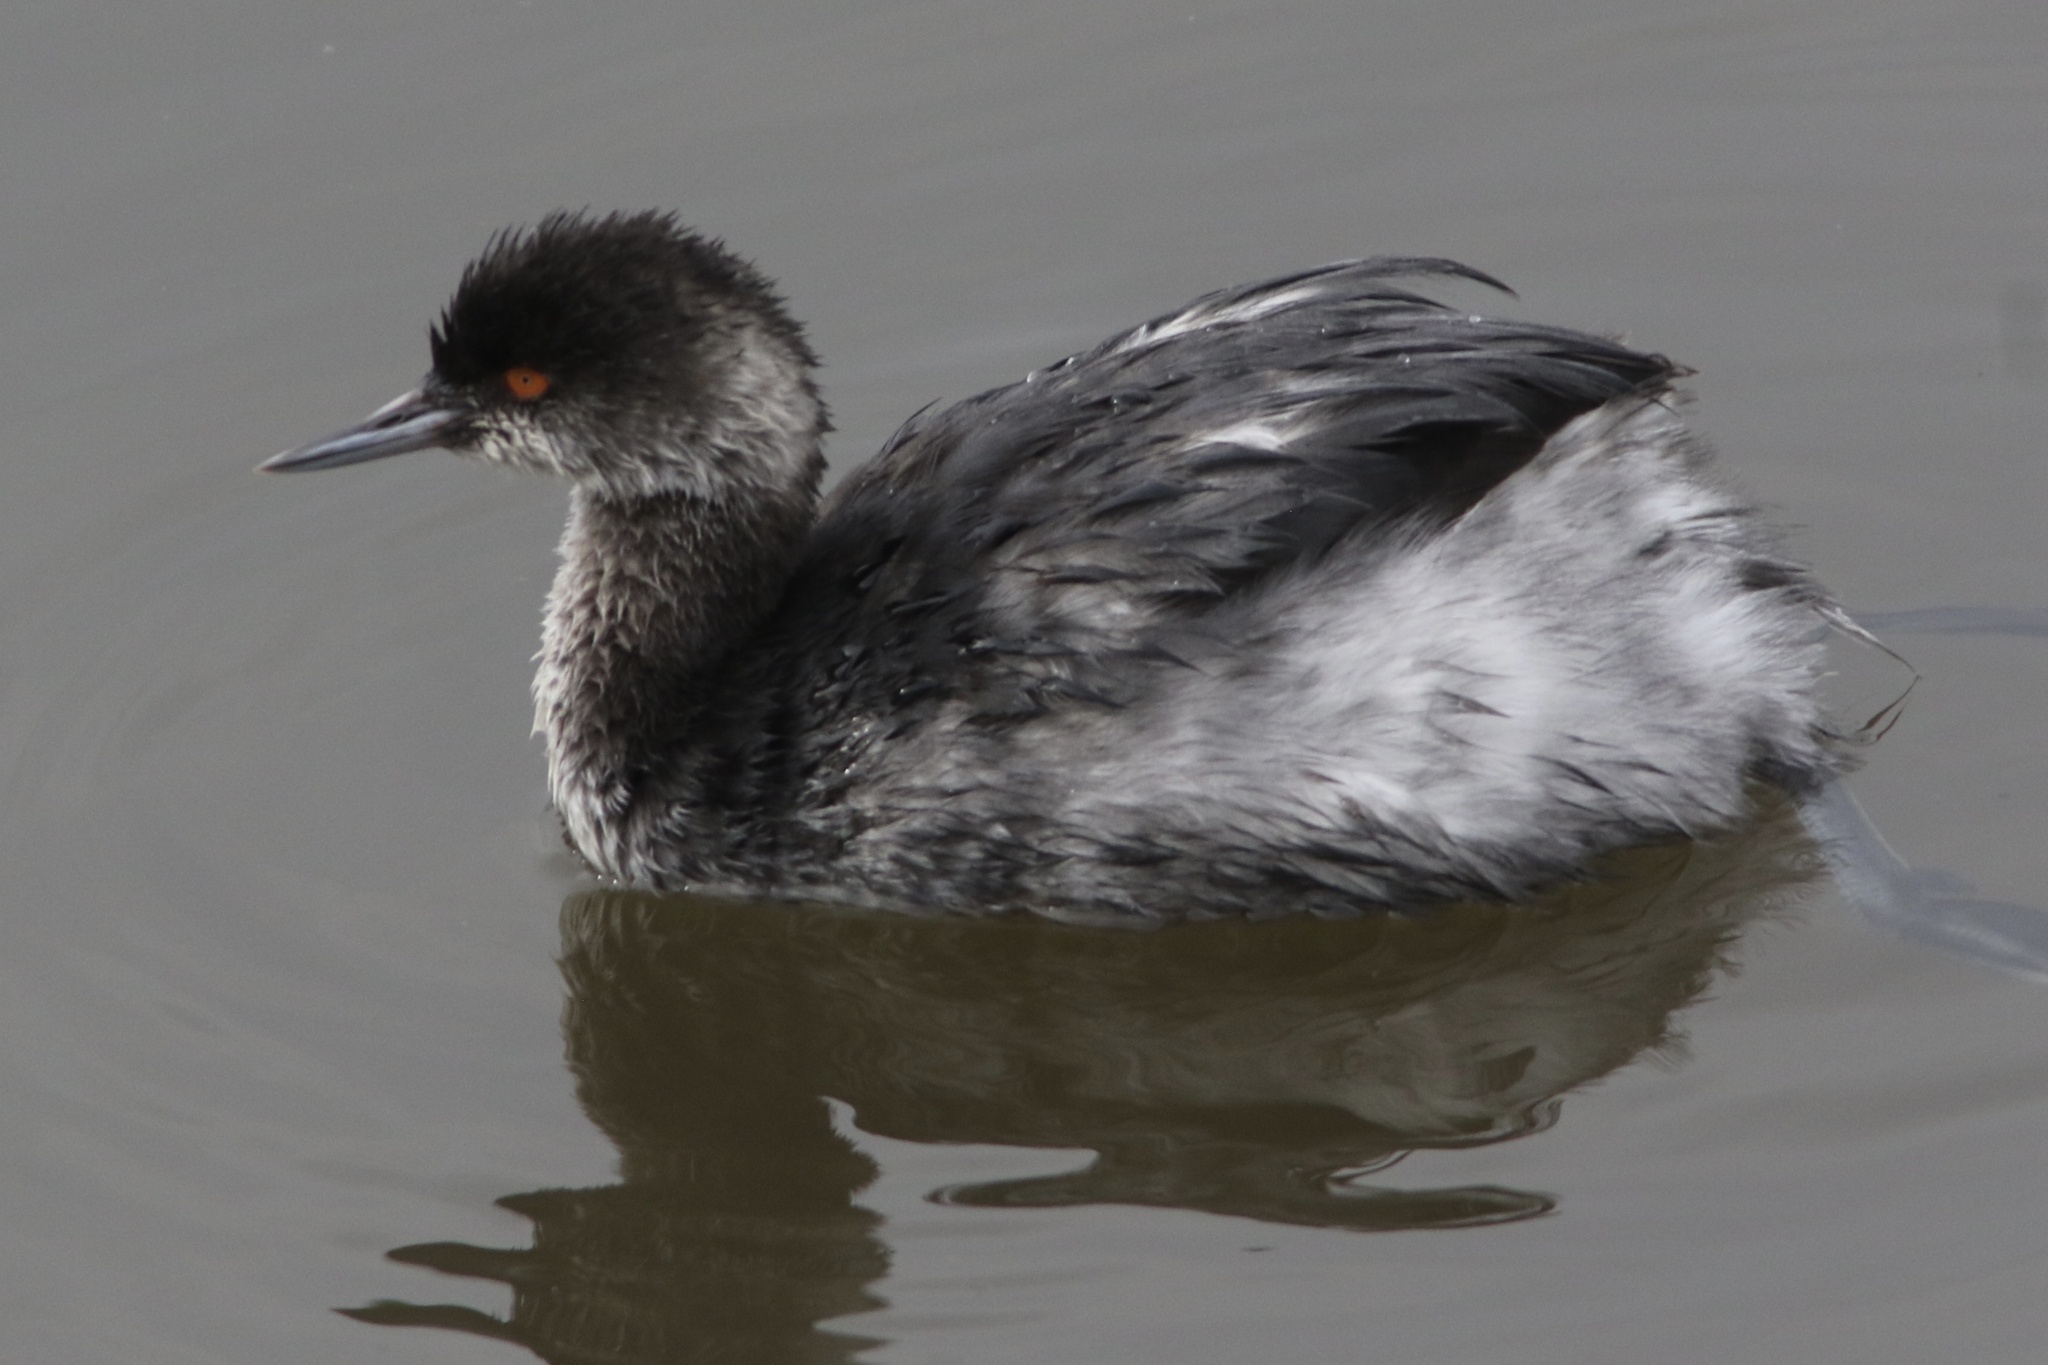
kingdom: Animalia
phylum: Chordata
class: Aves
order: Podicipediformes
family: Podicipedidae
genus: Podiceps
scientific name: Podiceps nigricollis
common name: Black-necked grebe
